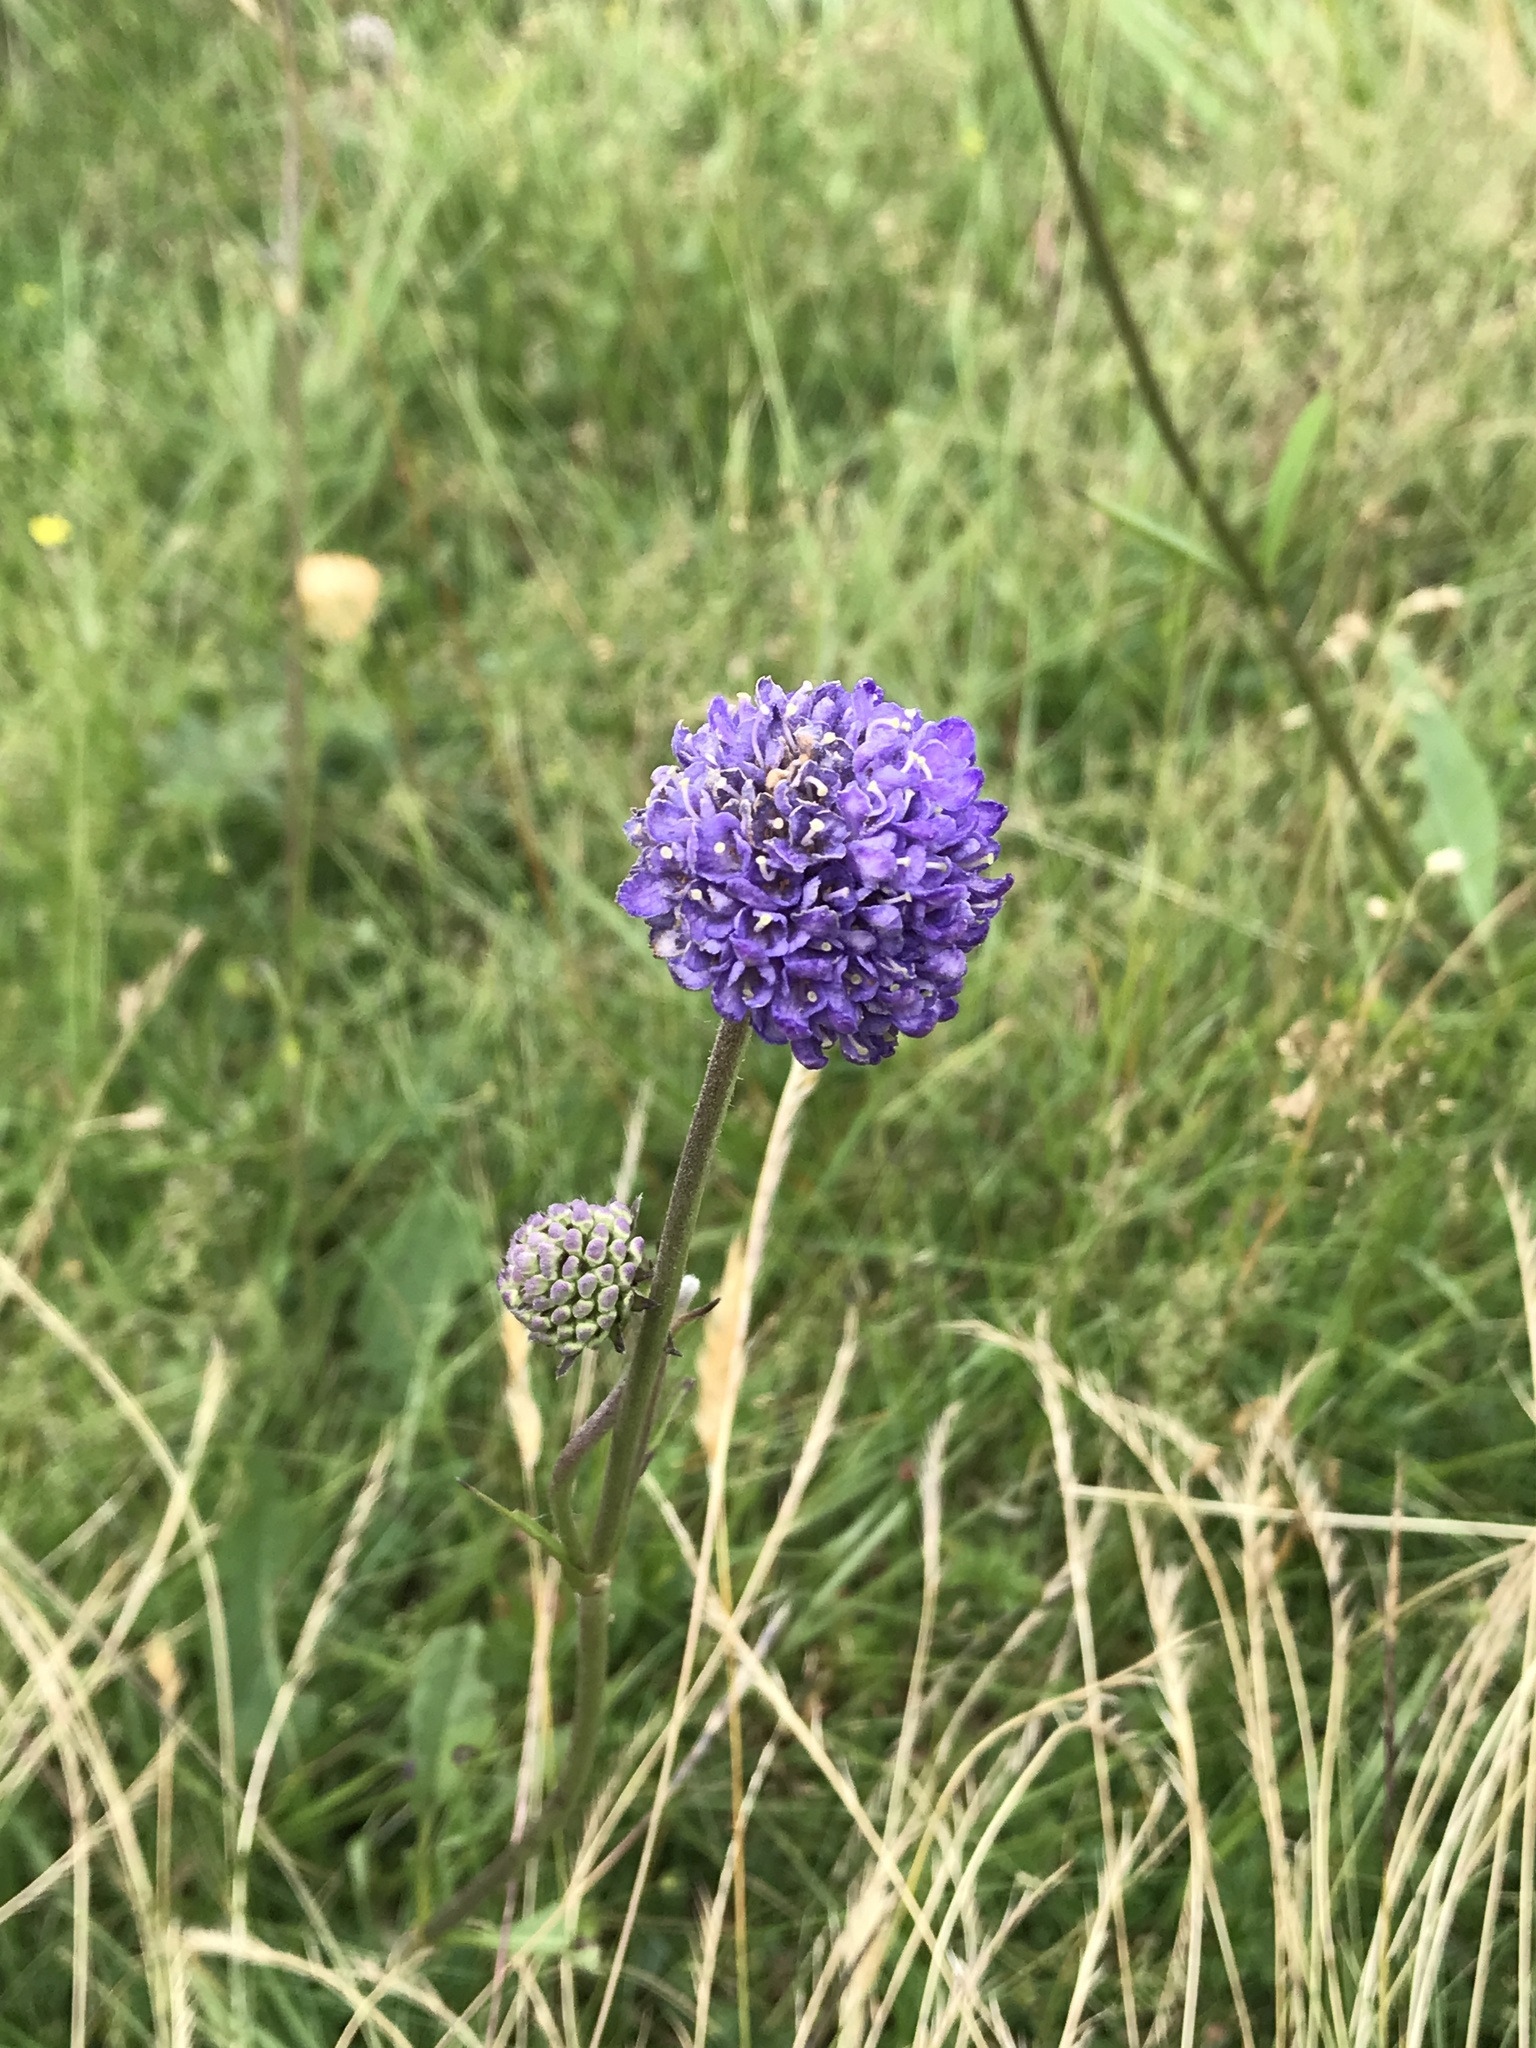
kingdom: Plantae
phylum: Tracheophyta
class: Magnoliopsida
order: Dipsacales
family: Caprifoliaceae
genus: Succisa
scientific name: Succisa pratensis
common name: Devil's-bit
